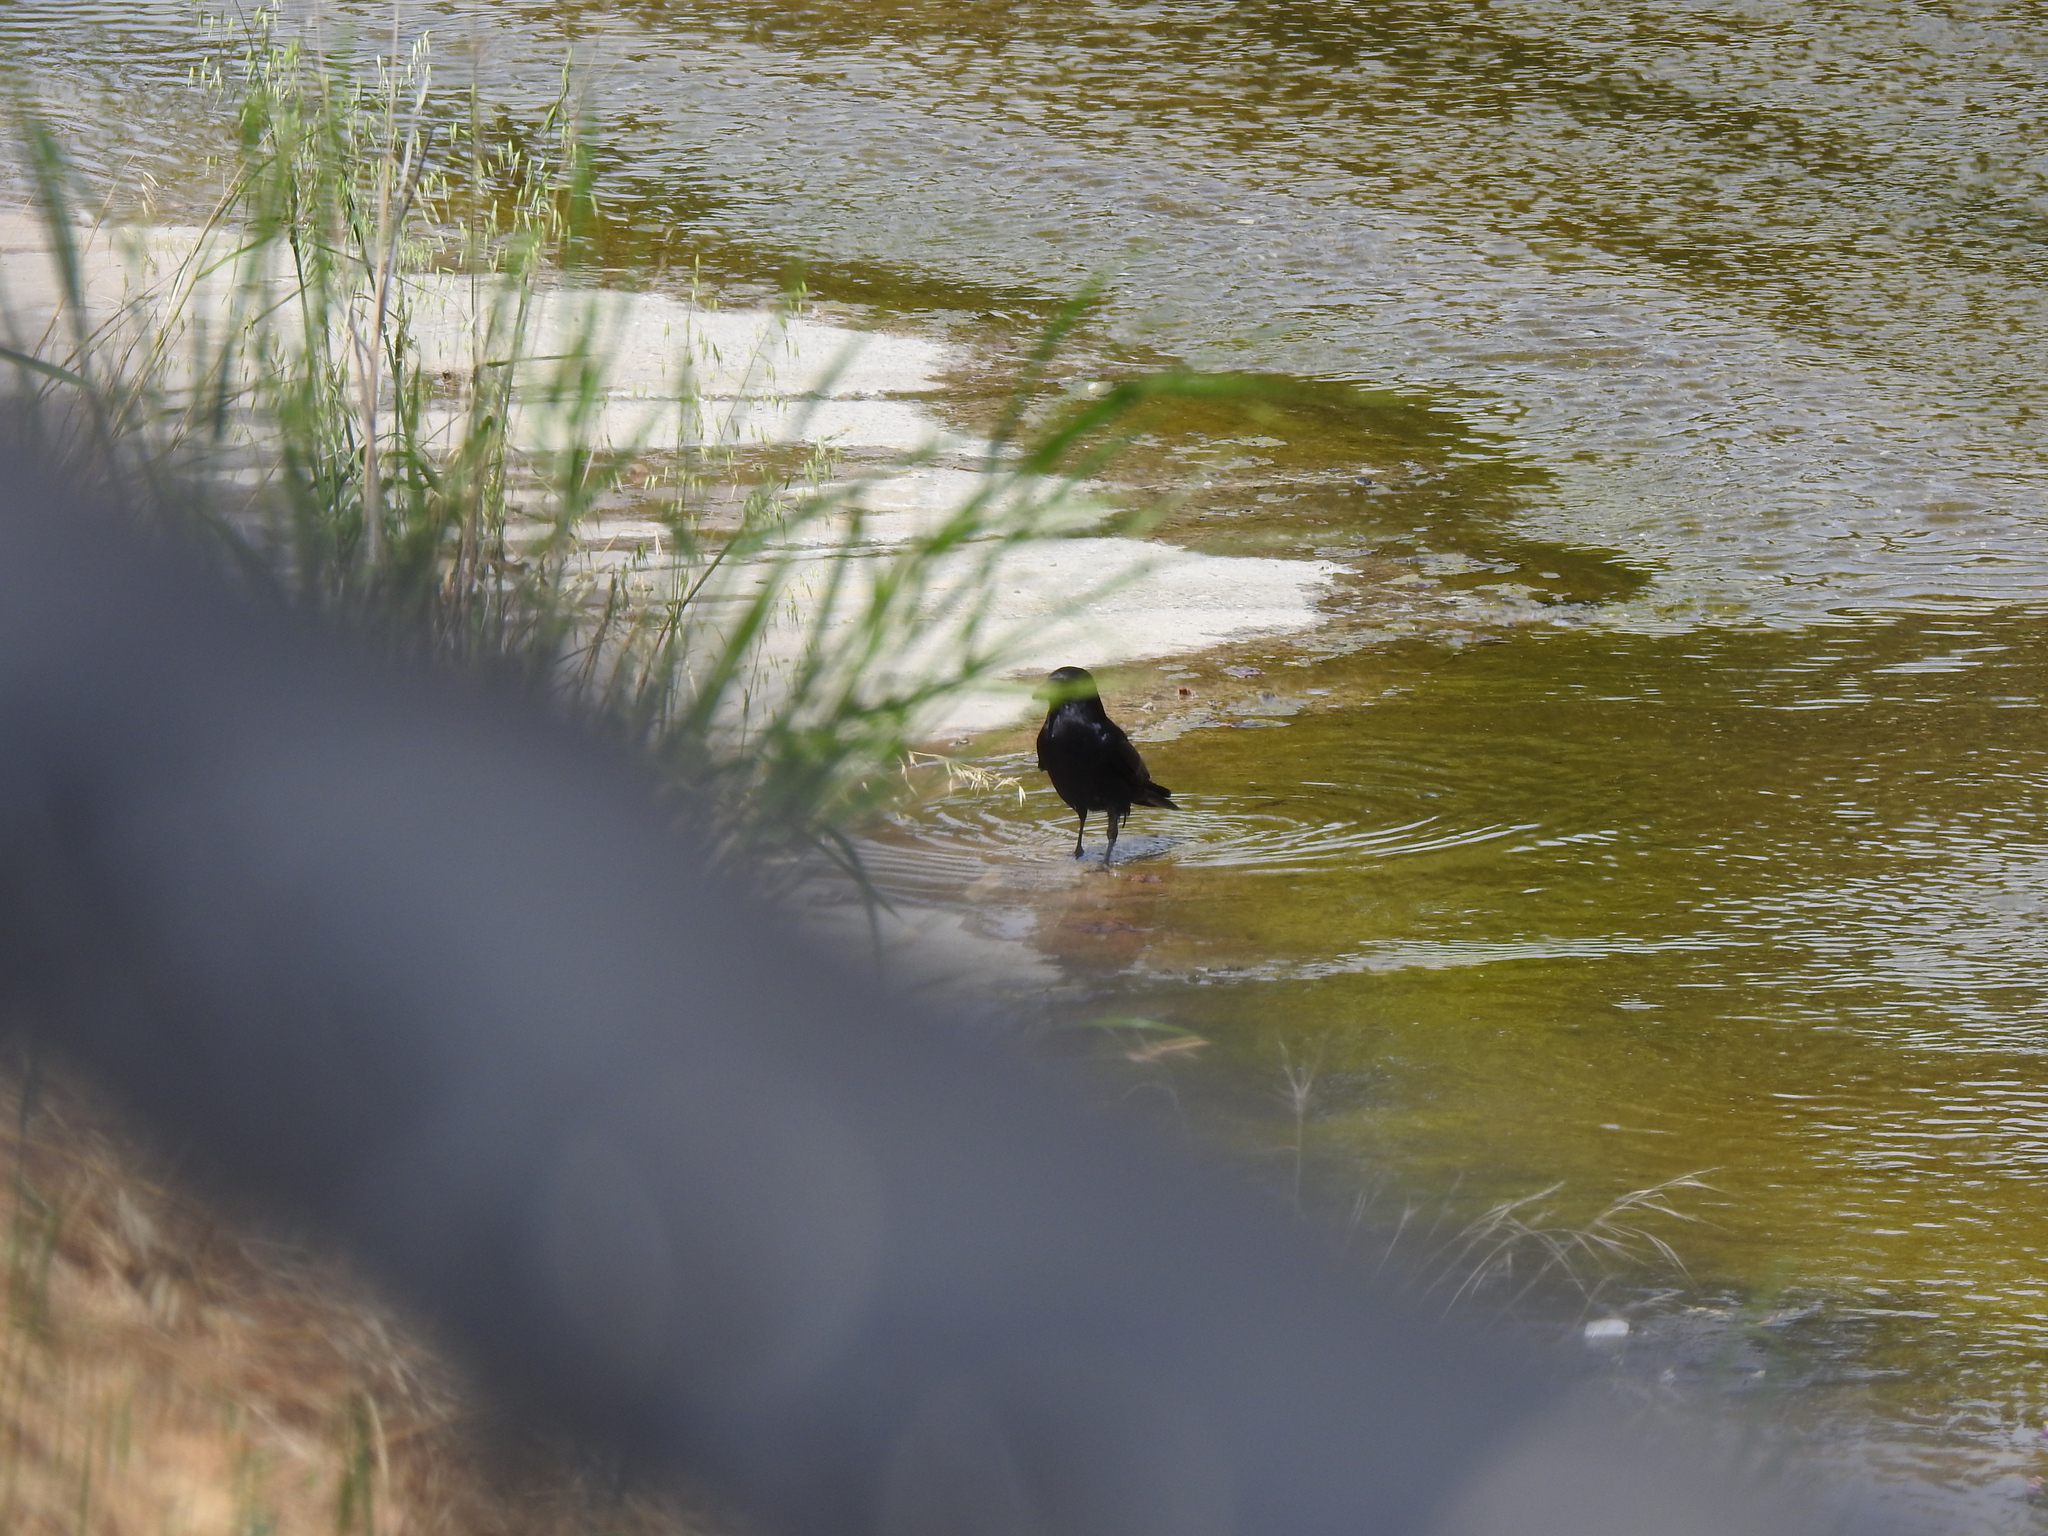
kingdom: Animalia
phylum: Chordata
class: Aves
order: Passeriformes
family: Corvidae
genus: Corvus
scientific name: Corvus brachyrhynchos
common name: American crow
